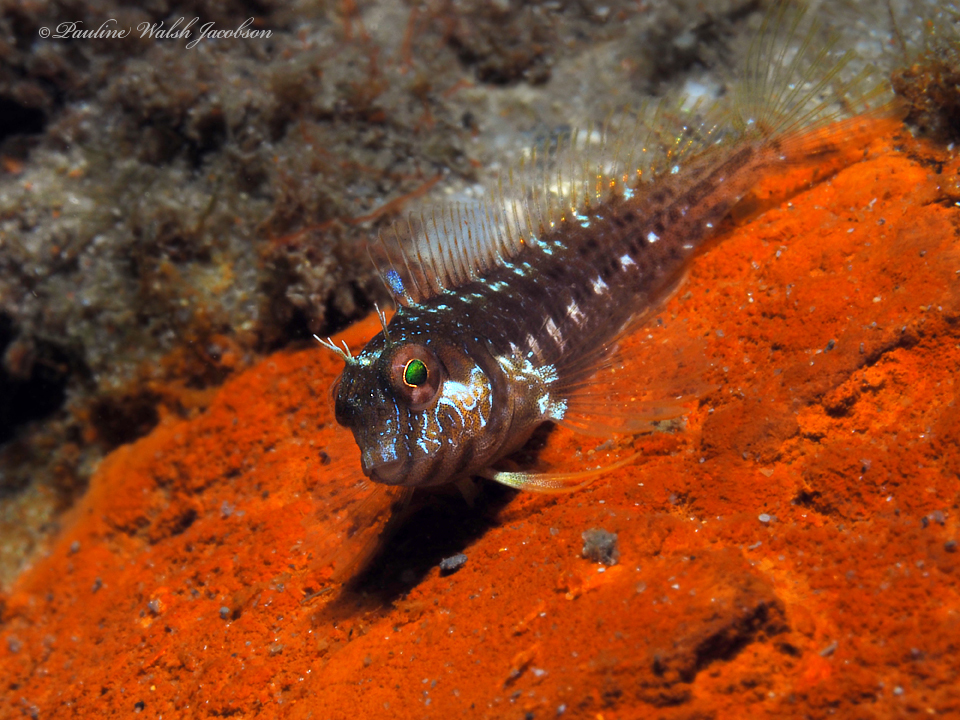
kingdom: Animalia
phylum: Chordata
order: Perciformes
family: Blenniidae
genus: Parablennius
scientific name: Parablennius marmoreus
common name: Seaweed blenny
